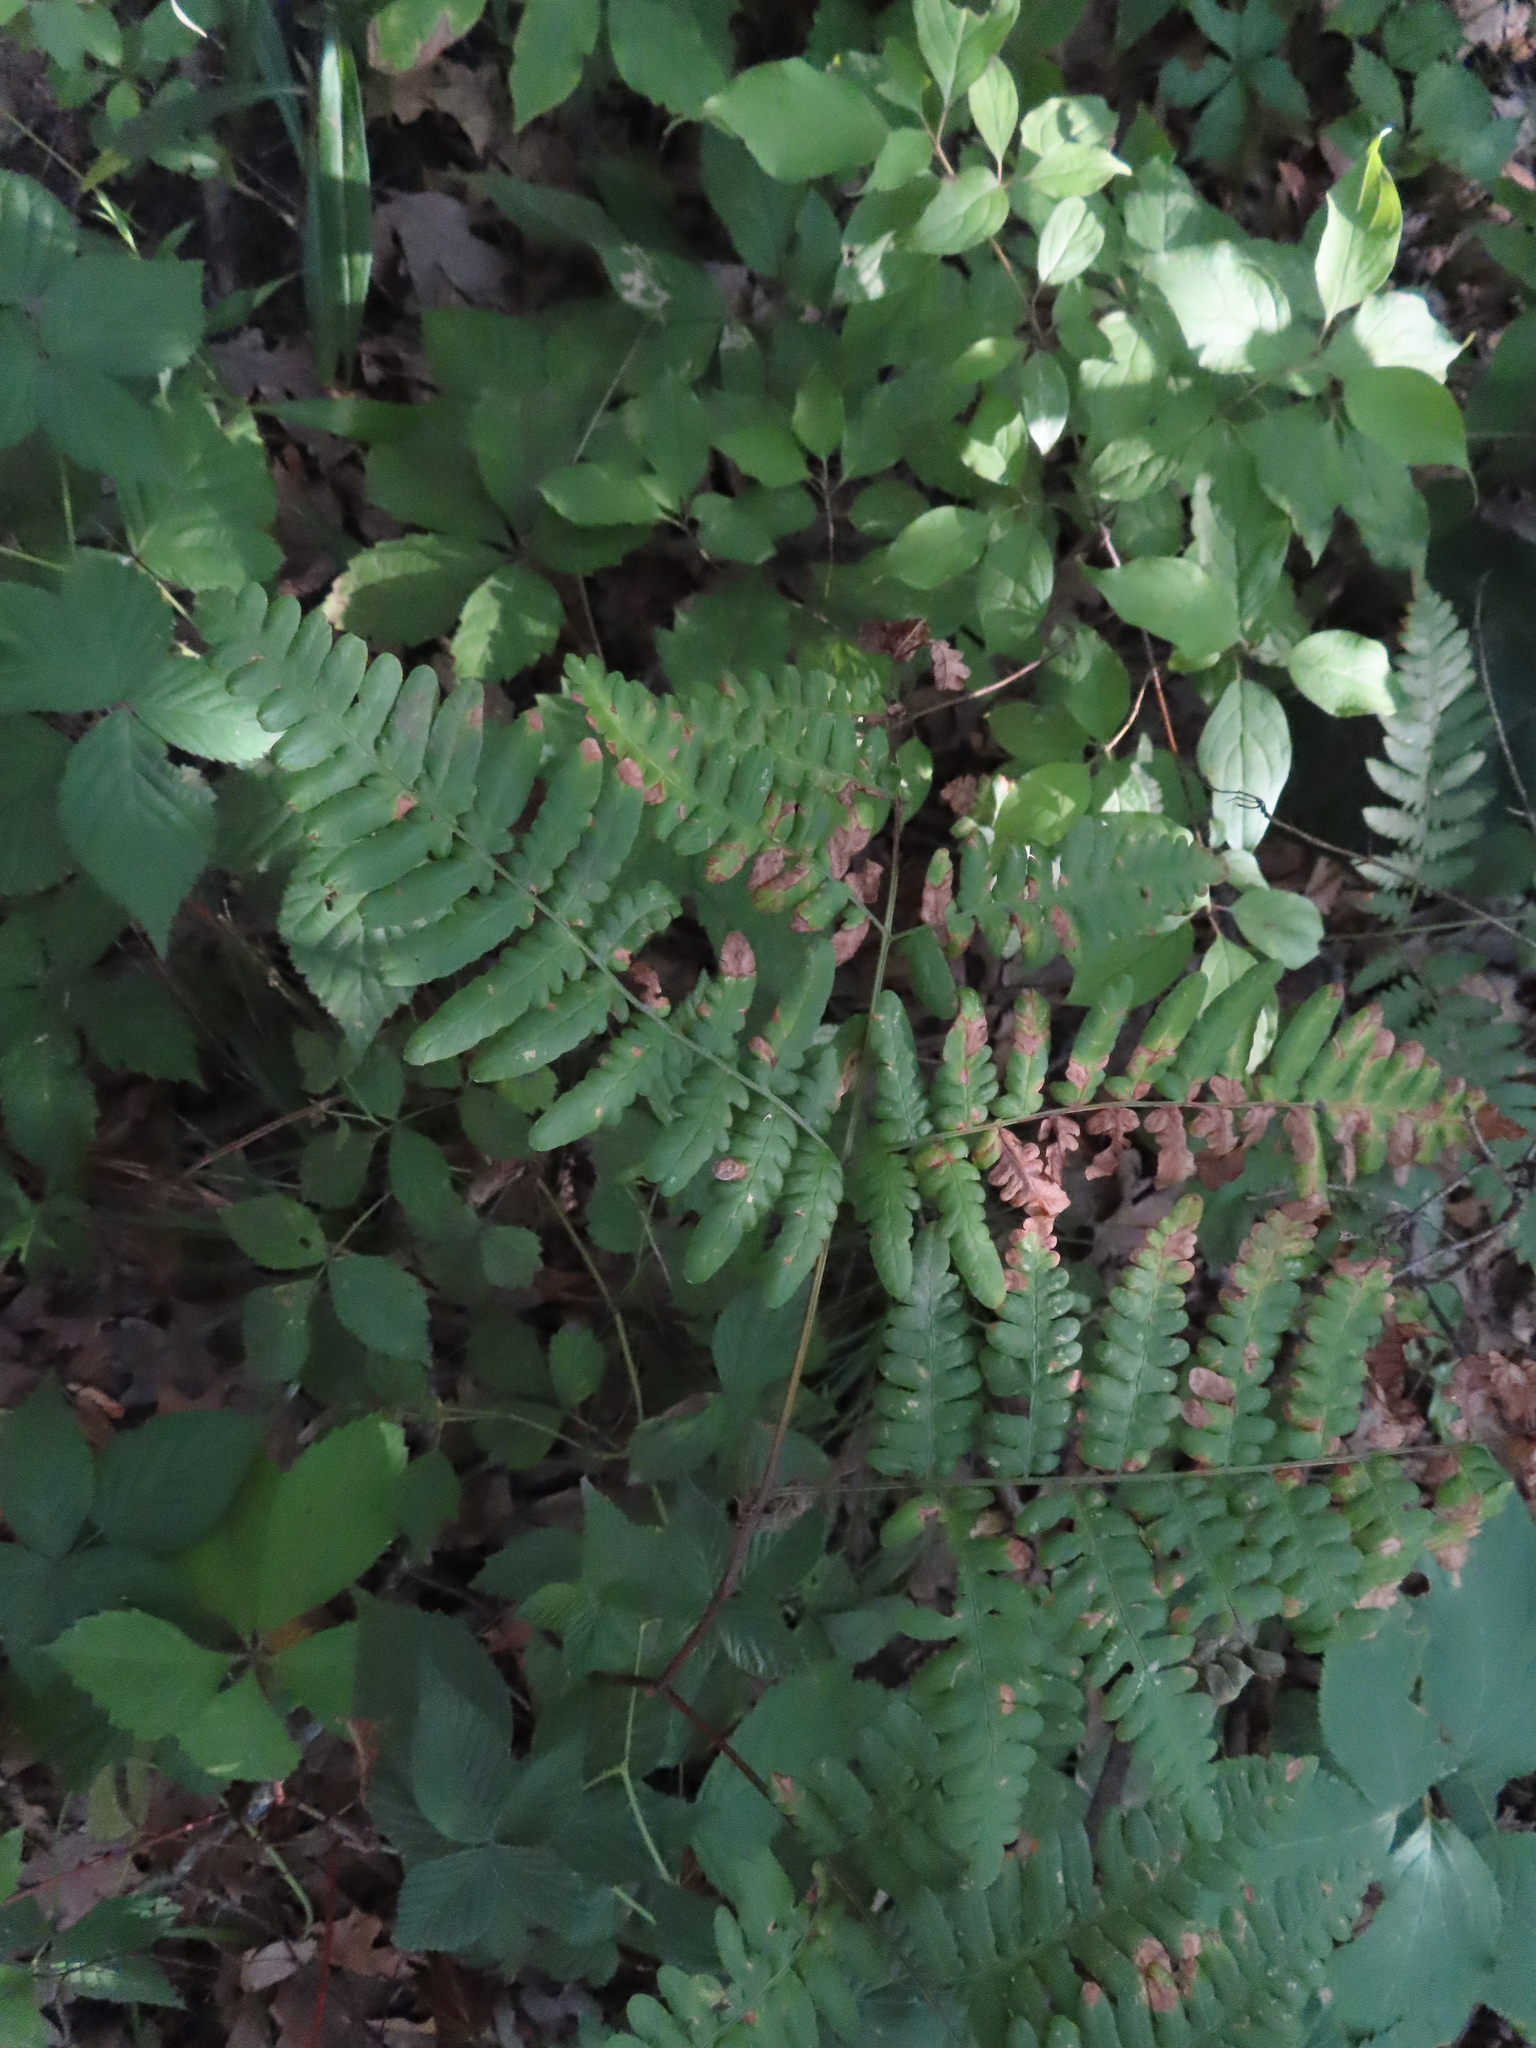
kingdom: Plantae
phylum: Tracheophyta
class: Polypodiopsida
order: Polypodiales
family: Dennstaedtiaceae
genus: Pteridium
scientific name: Pteridium aquilinum
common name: Bracken
